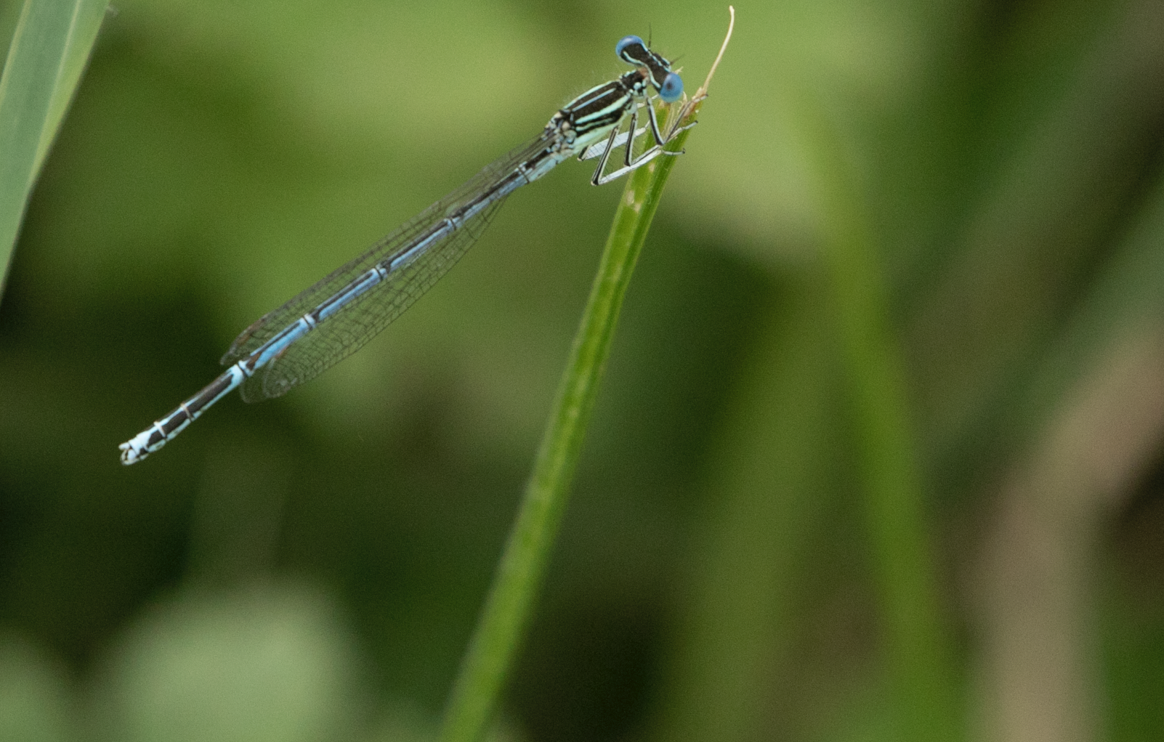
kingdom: Animalia
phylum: Arthropoda
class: Insecta
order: Odonata
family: Platycnemididae
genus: Platycnemis
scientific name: Platycnemis pennipes
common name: White-legged damselfly
